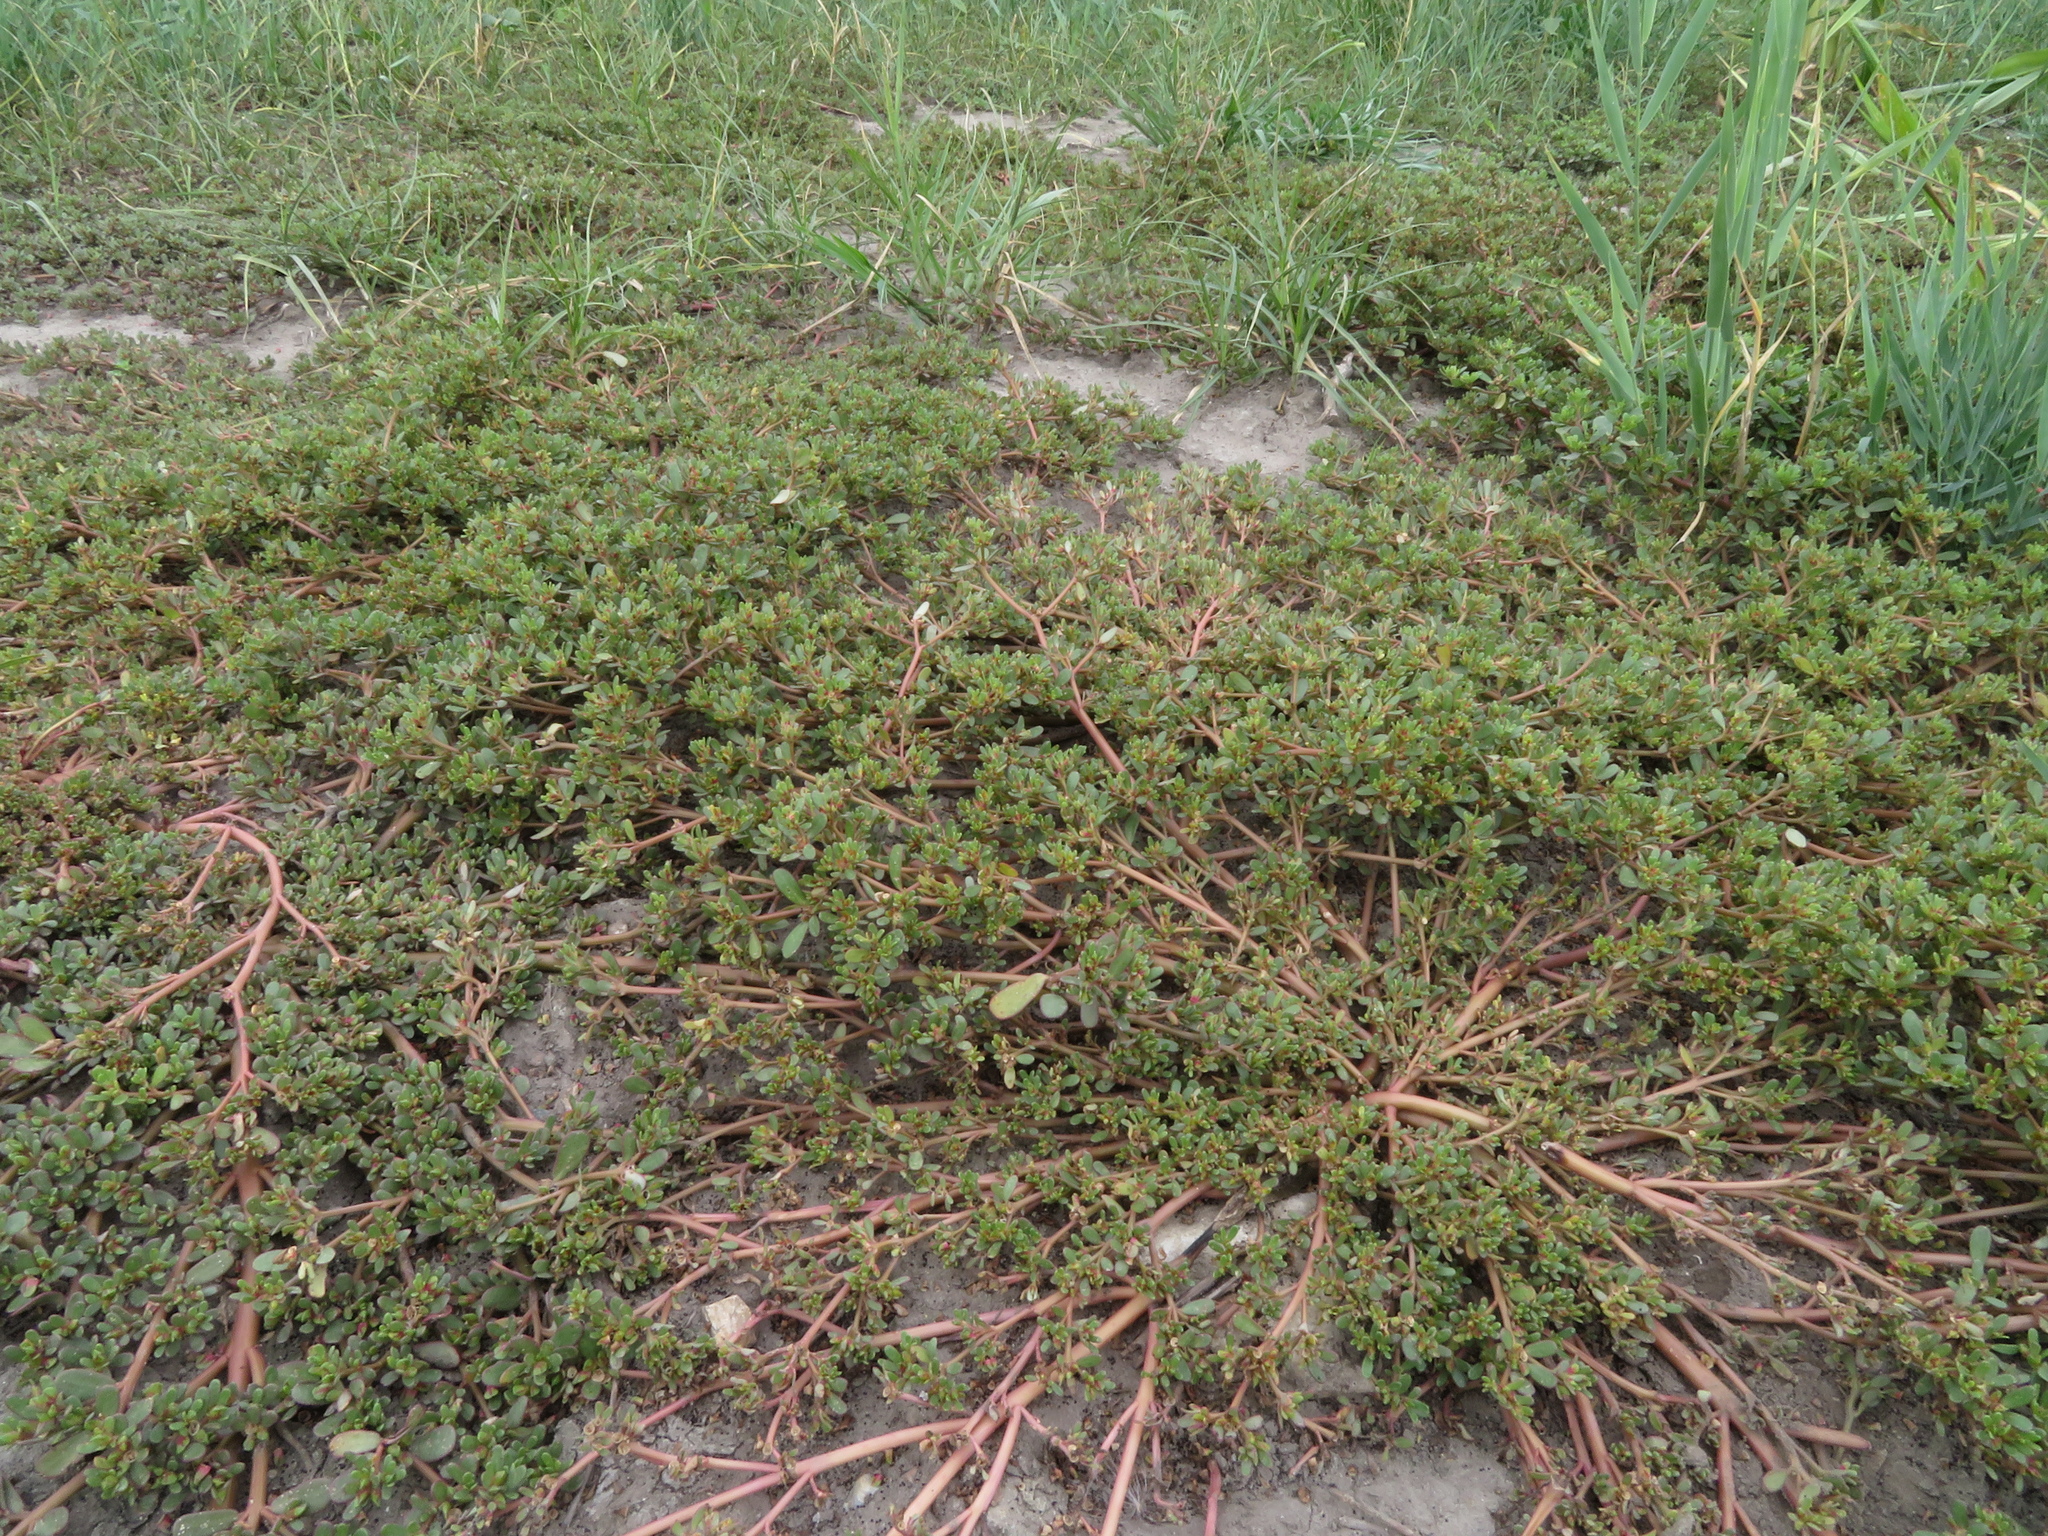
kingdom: Plantae
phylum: Tracheophyta
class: Magnoliopsida
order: Caryophyllales
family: Portulacaceae
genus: Portulaca
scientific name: Portulaca oleracea
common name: Common purslane
